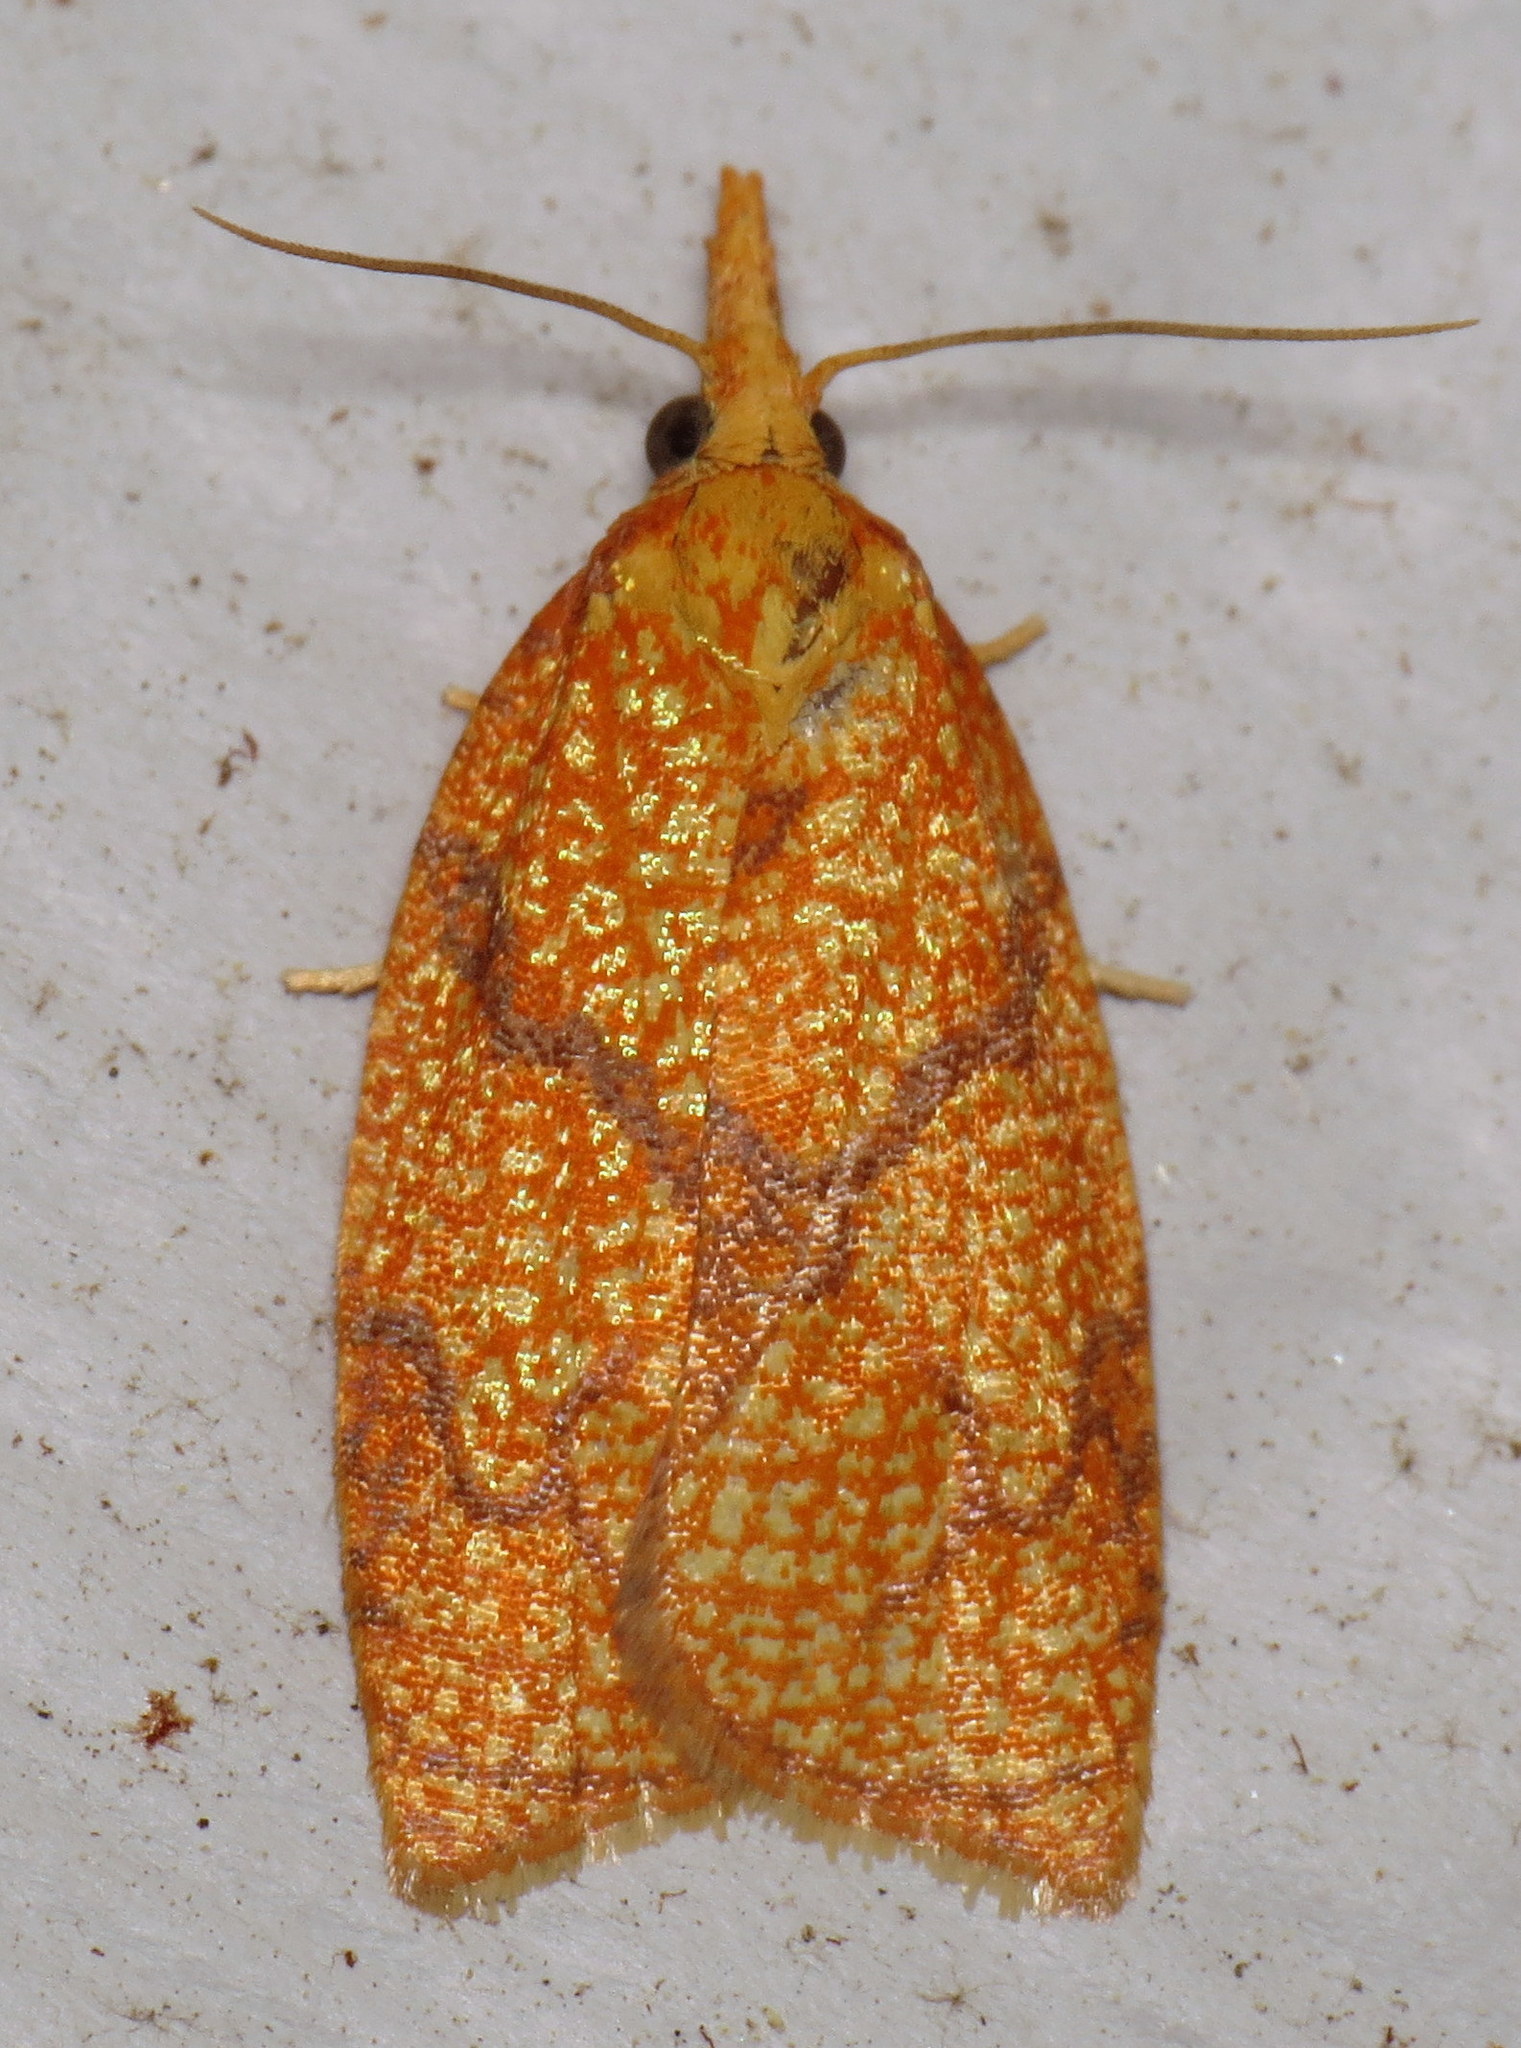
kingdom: Animalia
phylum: Arthropoda
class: Insecta
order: Lepidoptera
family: Tortricidae
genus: Cenopis
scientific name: Cenopis reticulatana
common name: Reticulated fruitworm moth
